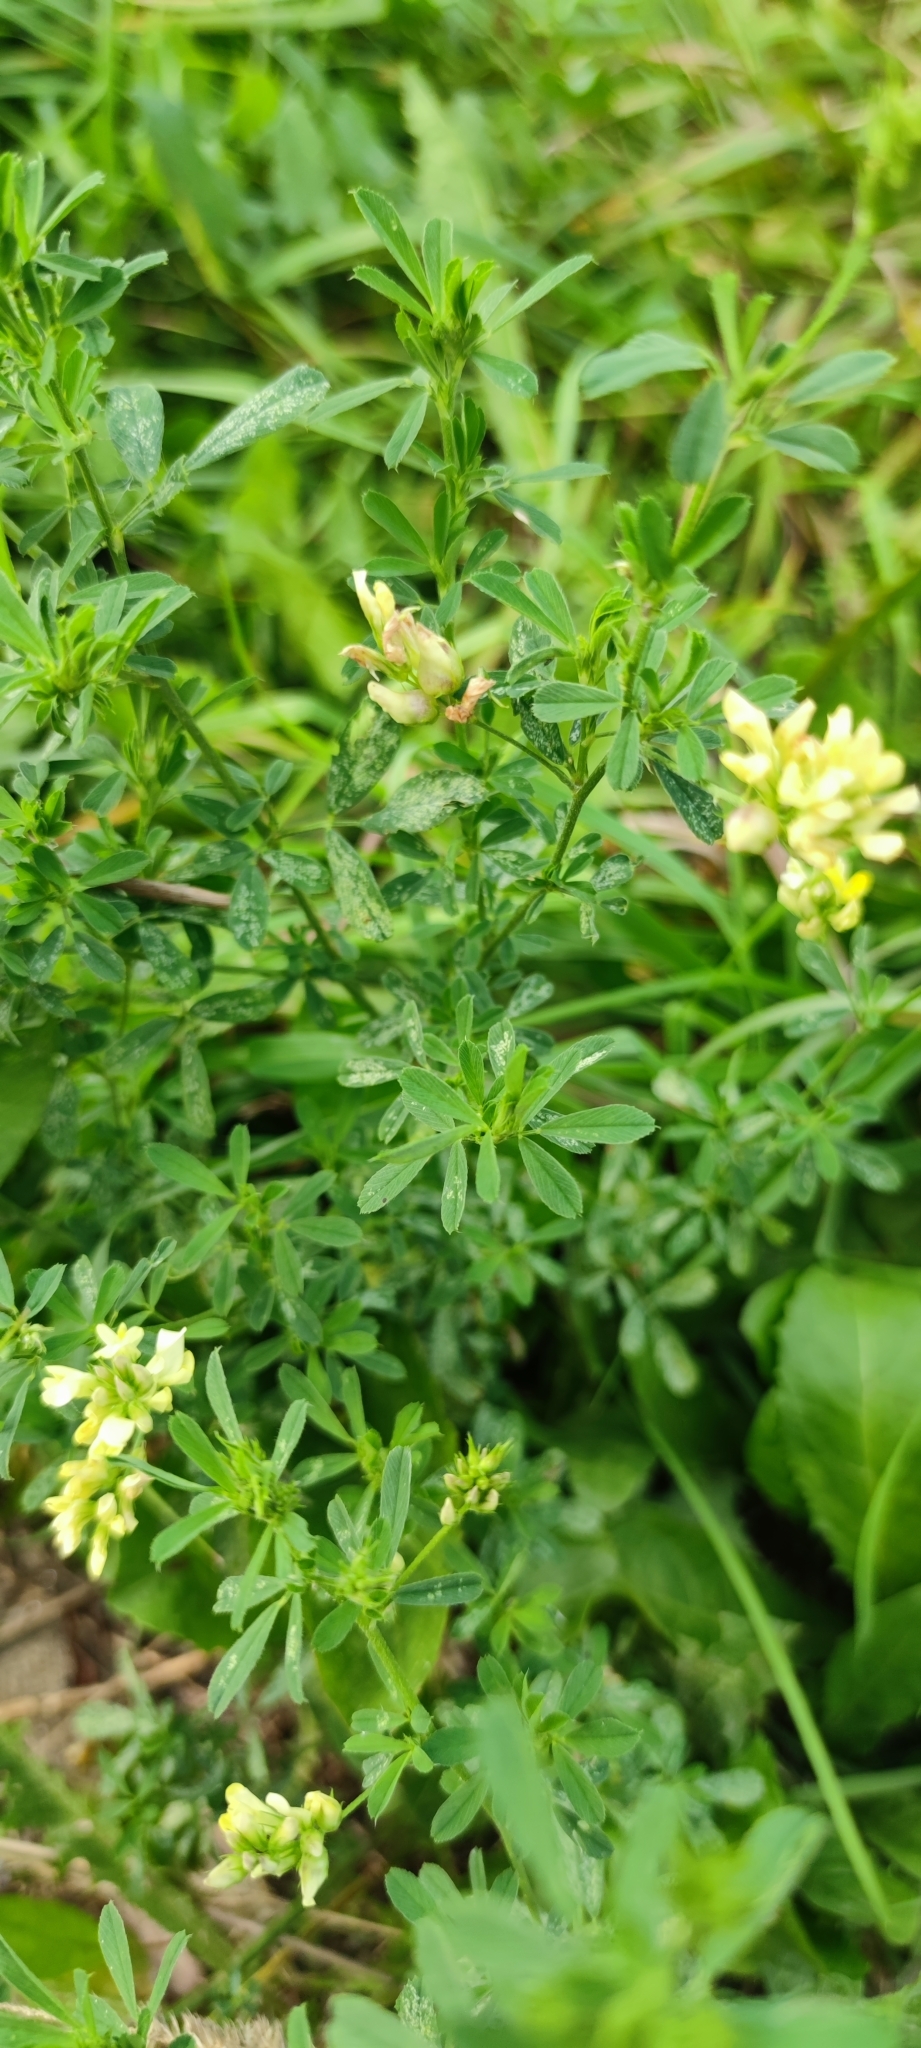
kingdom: Plantae
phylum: Tracheophyta
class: Magnoliopsida
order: Fabales
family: Fabaceae
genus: Medicago
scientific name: Medicago varia
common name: Sand lucerne
